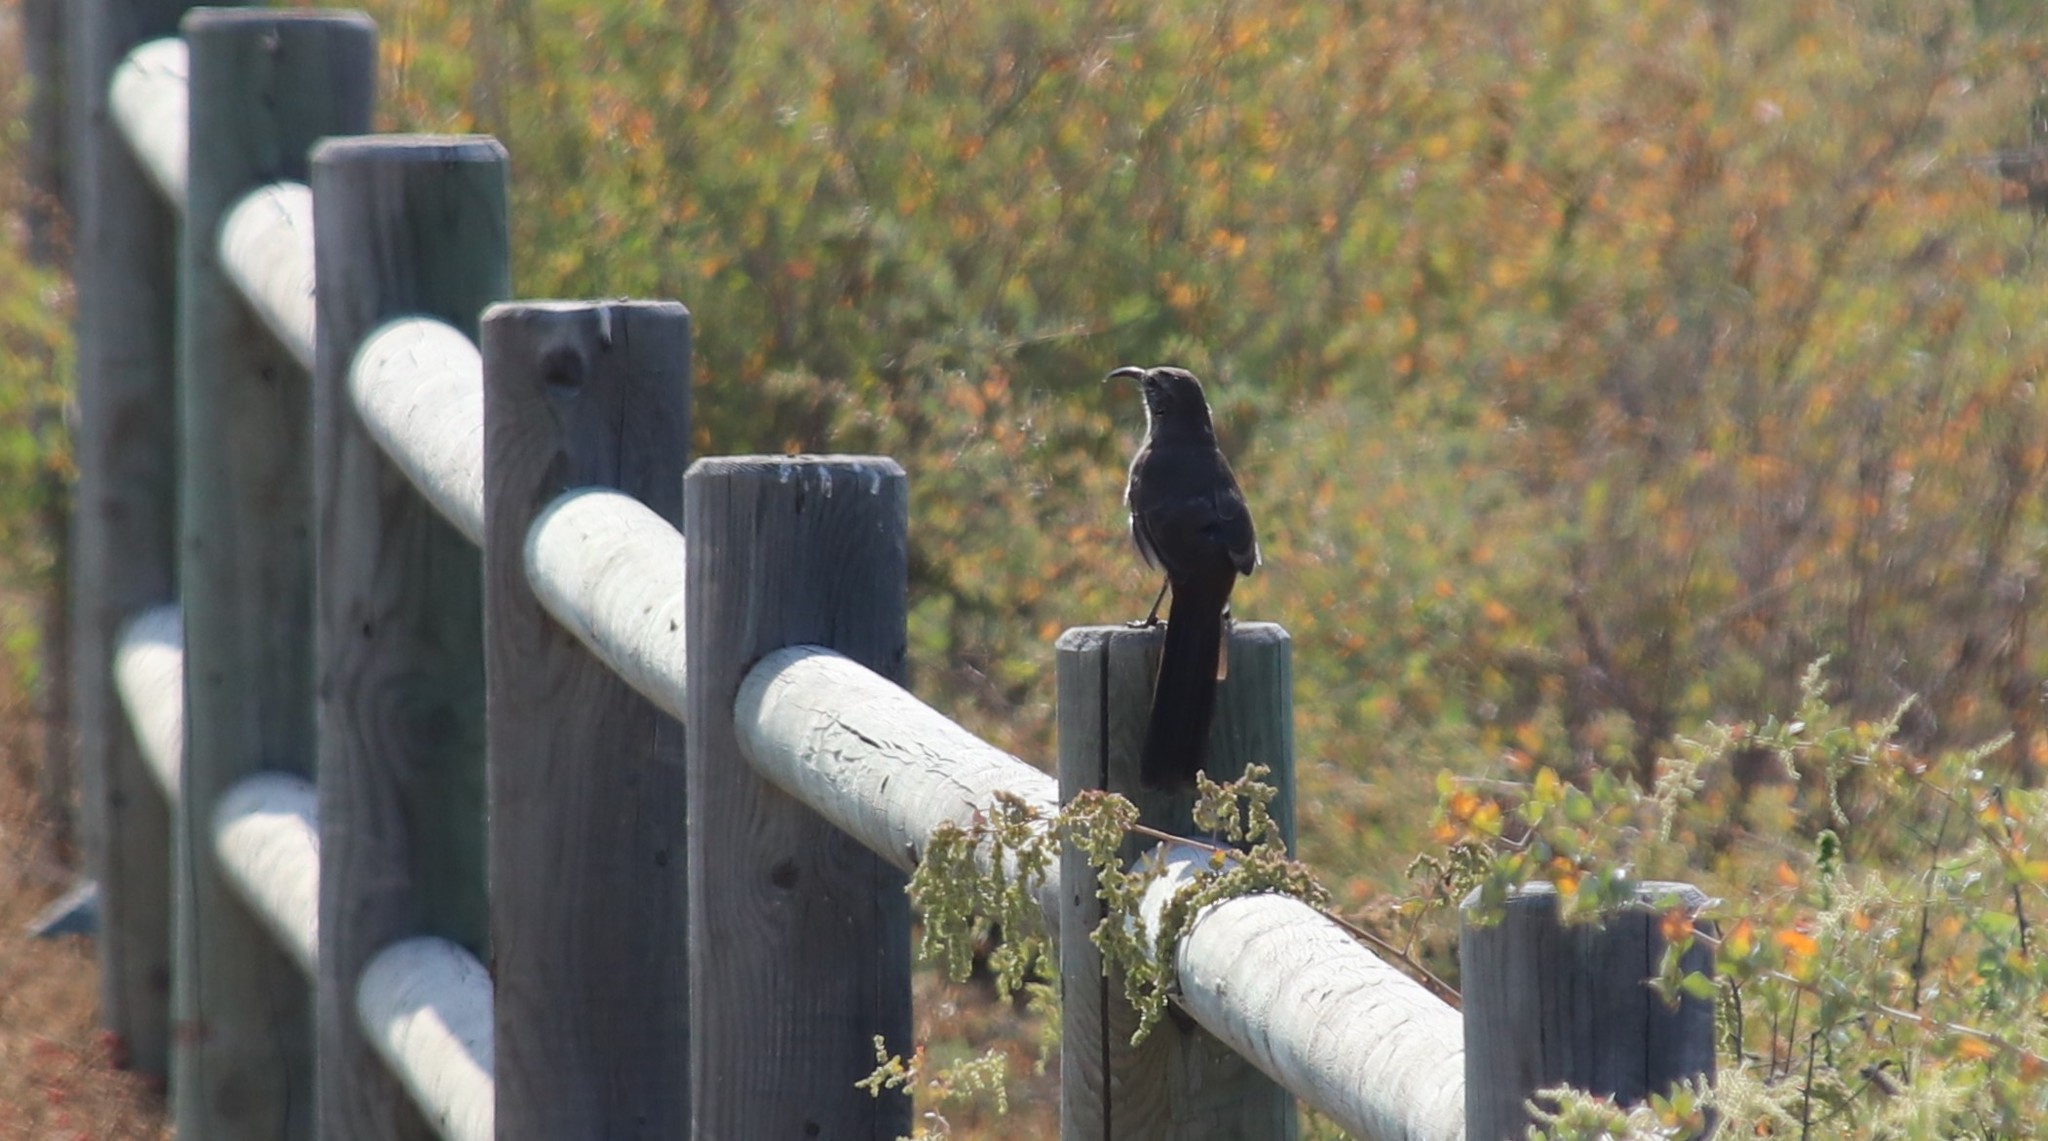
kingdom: Animalia
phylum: Chordata
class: Aves
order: Passeriformes
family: Mimidae
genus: Toxostoma
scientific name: Toxostoma redivivum
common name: California thrasher
